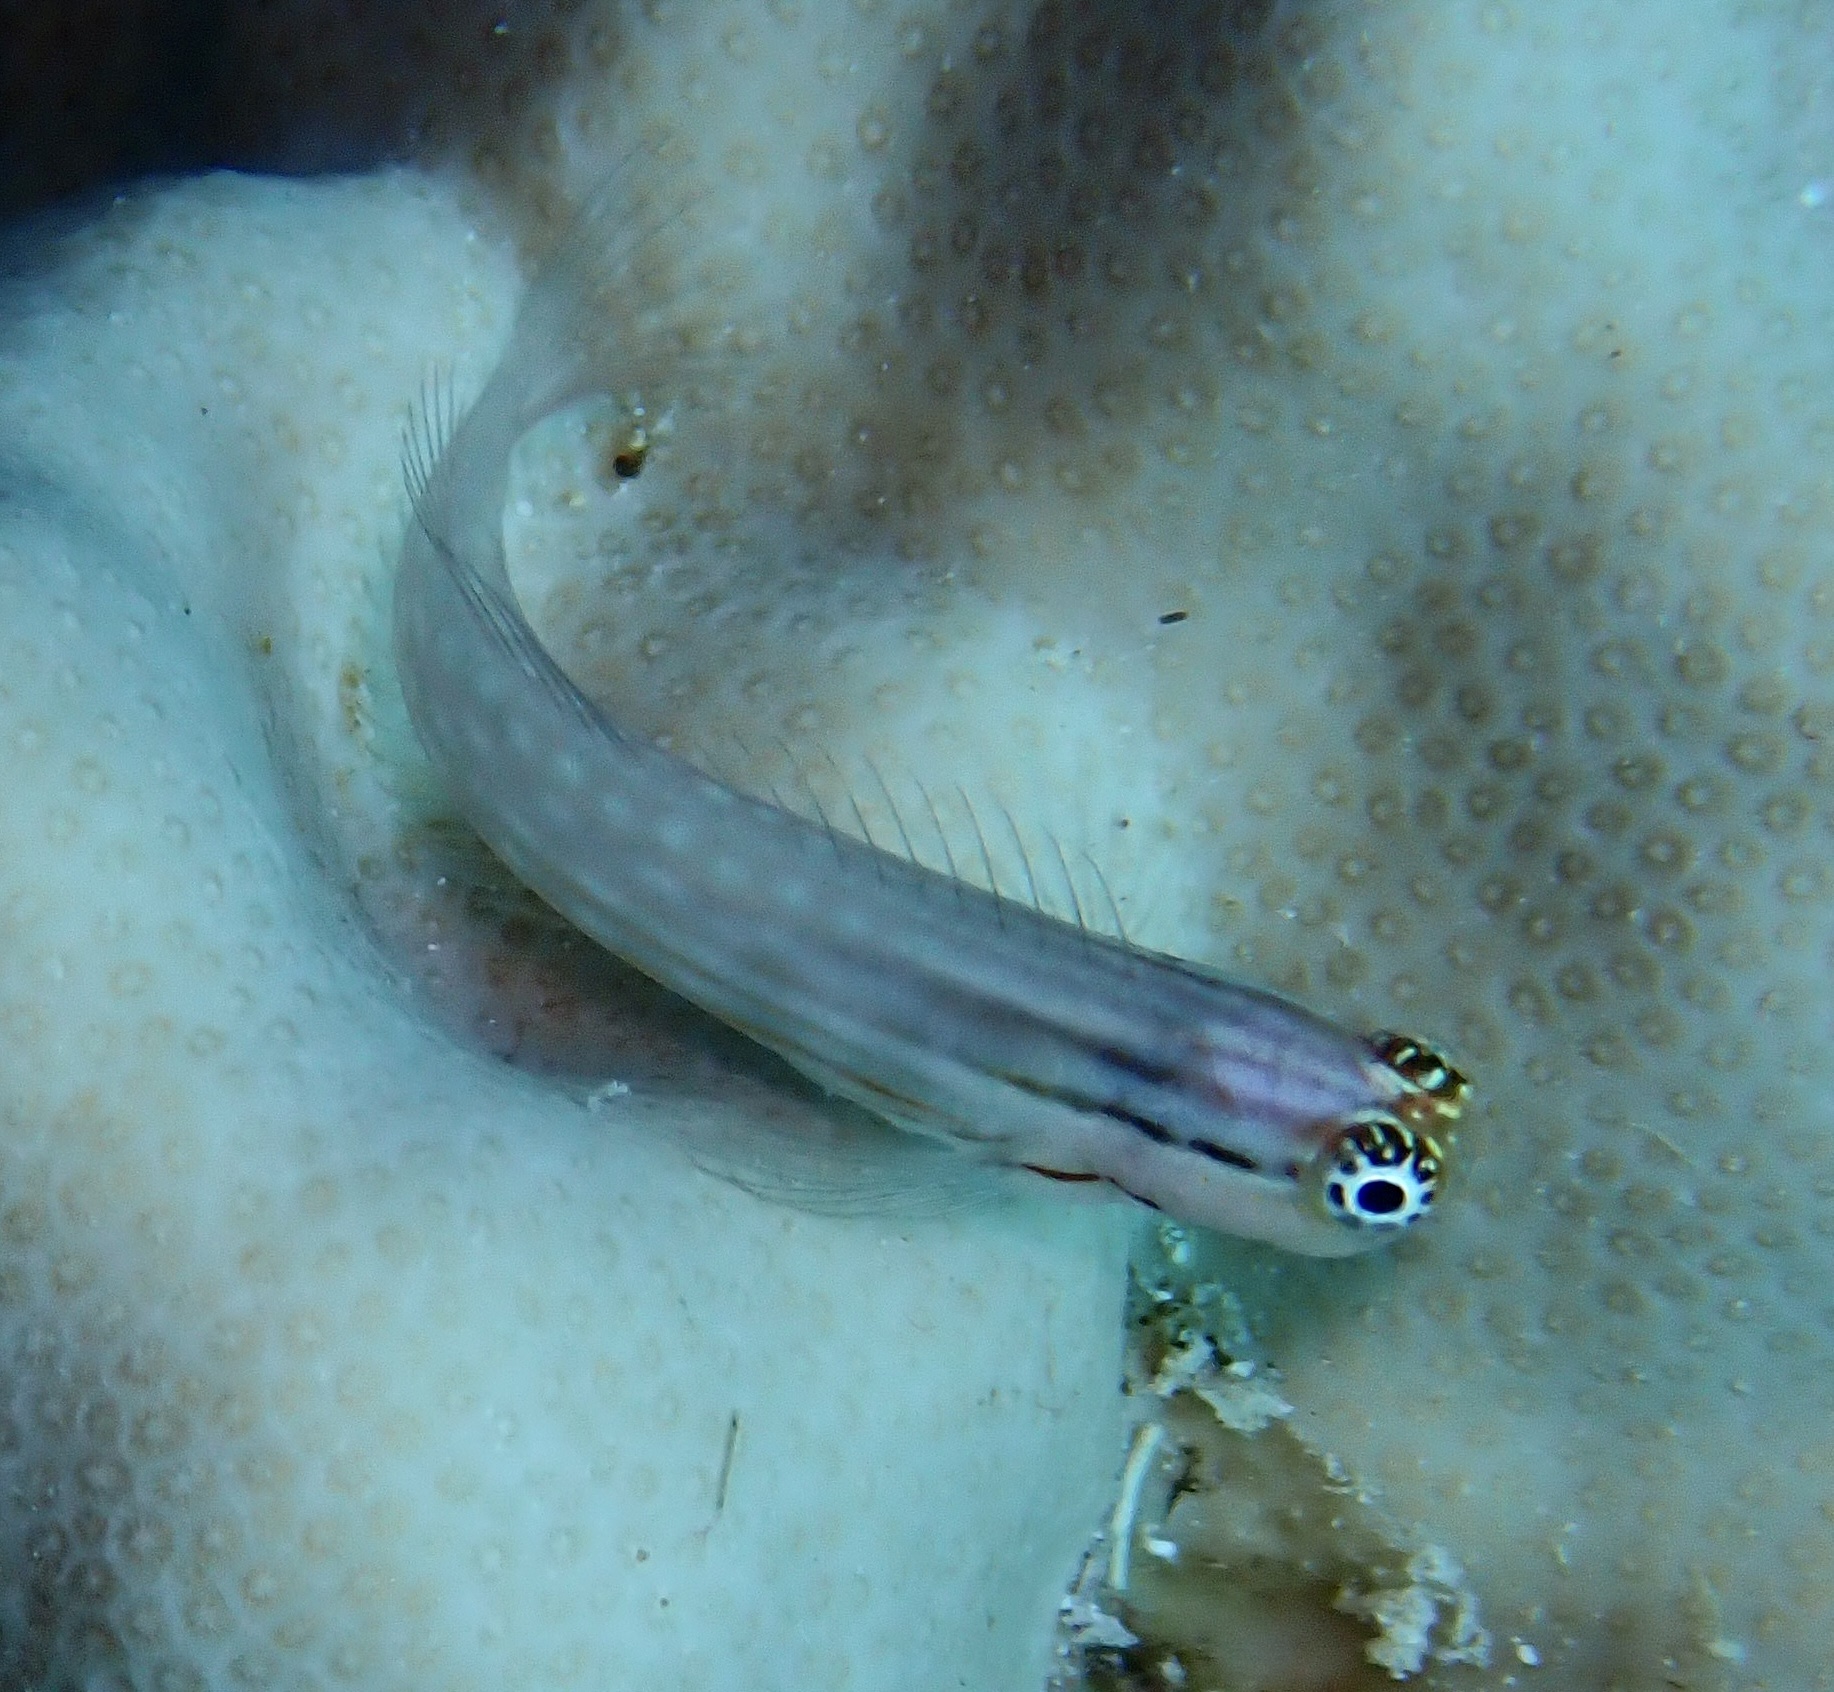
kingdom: Animalia
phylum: Chordata
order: Perciformes
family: Blenniidae
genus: Ecsenius
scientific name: Ecsenius dentex
